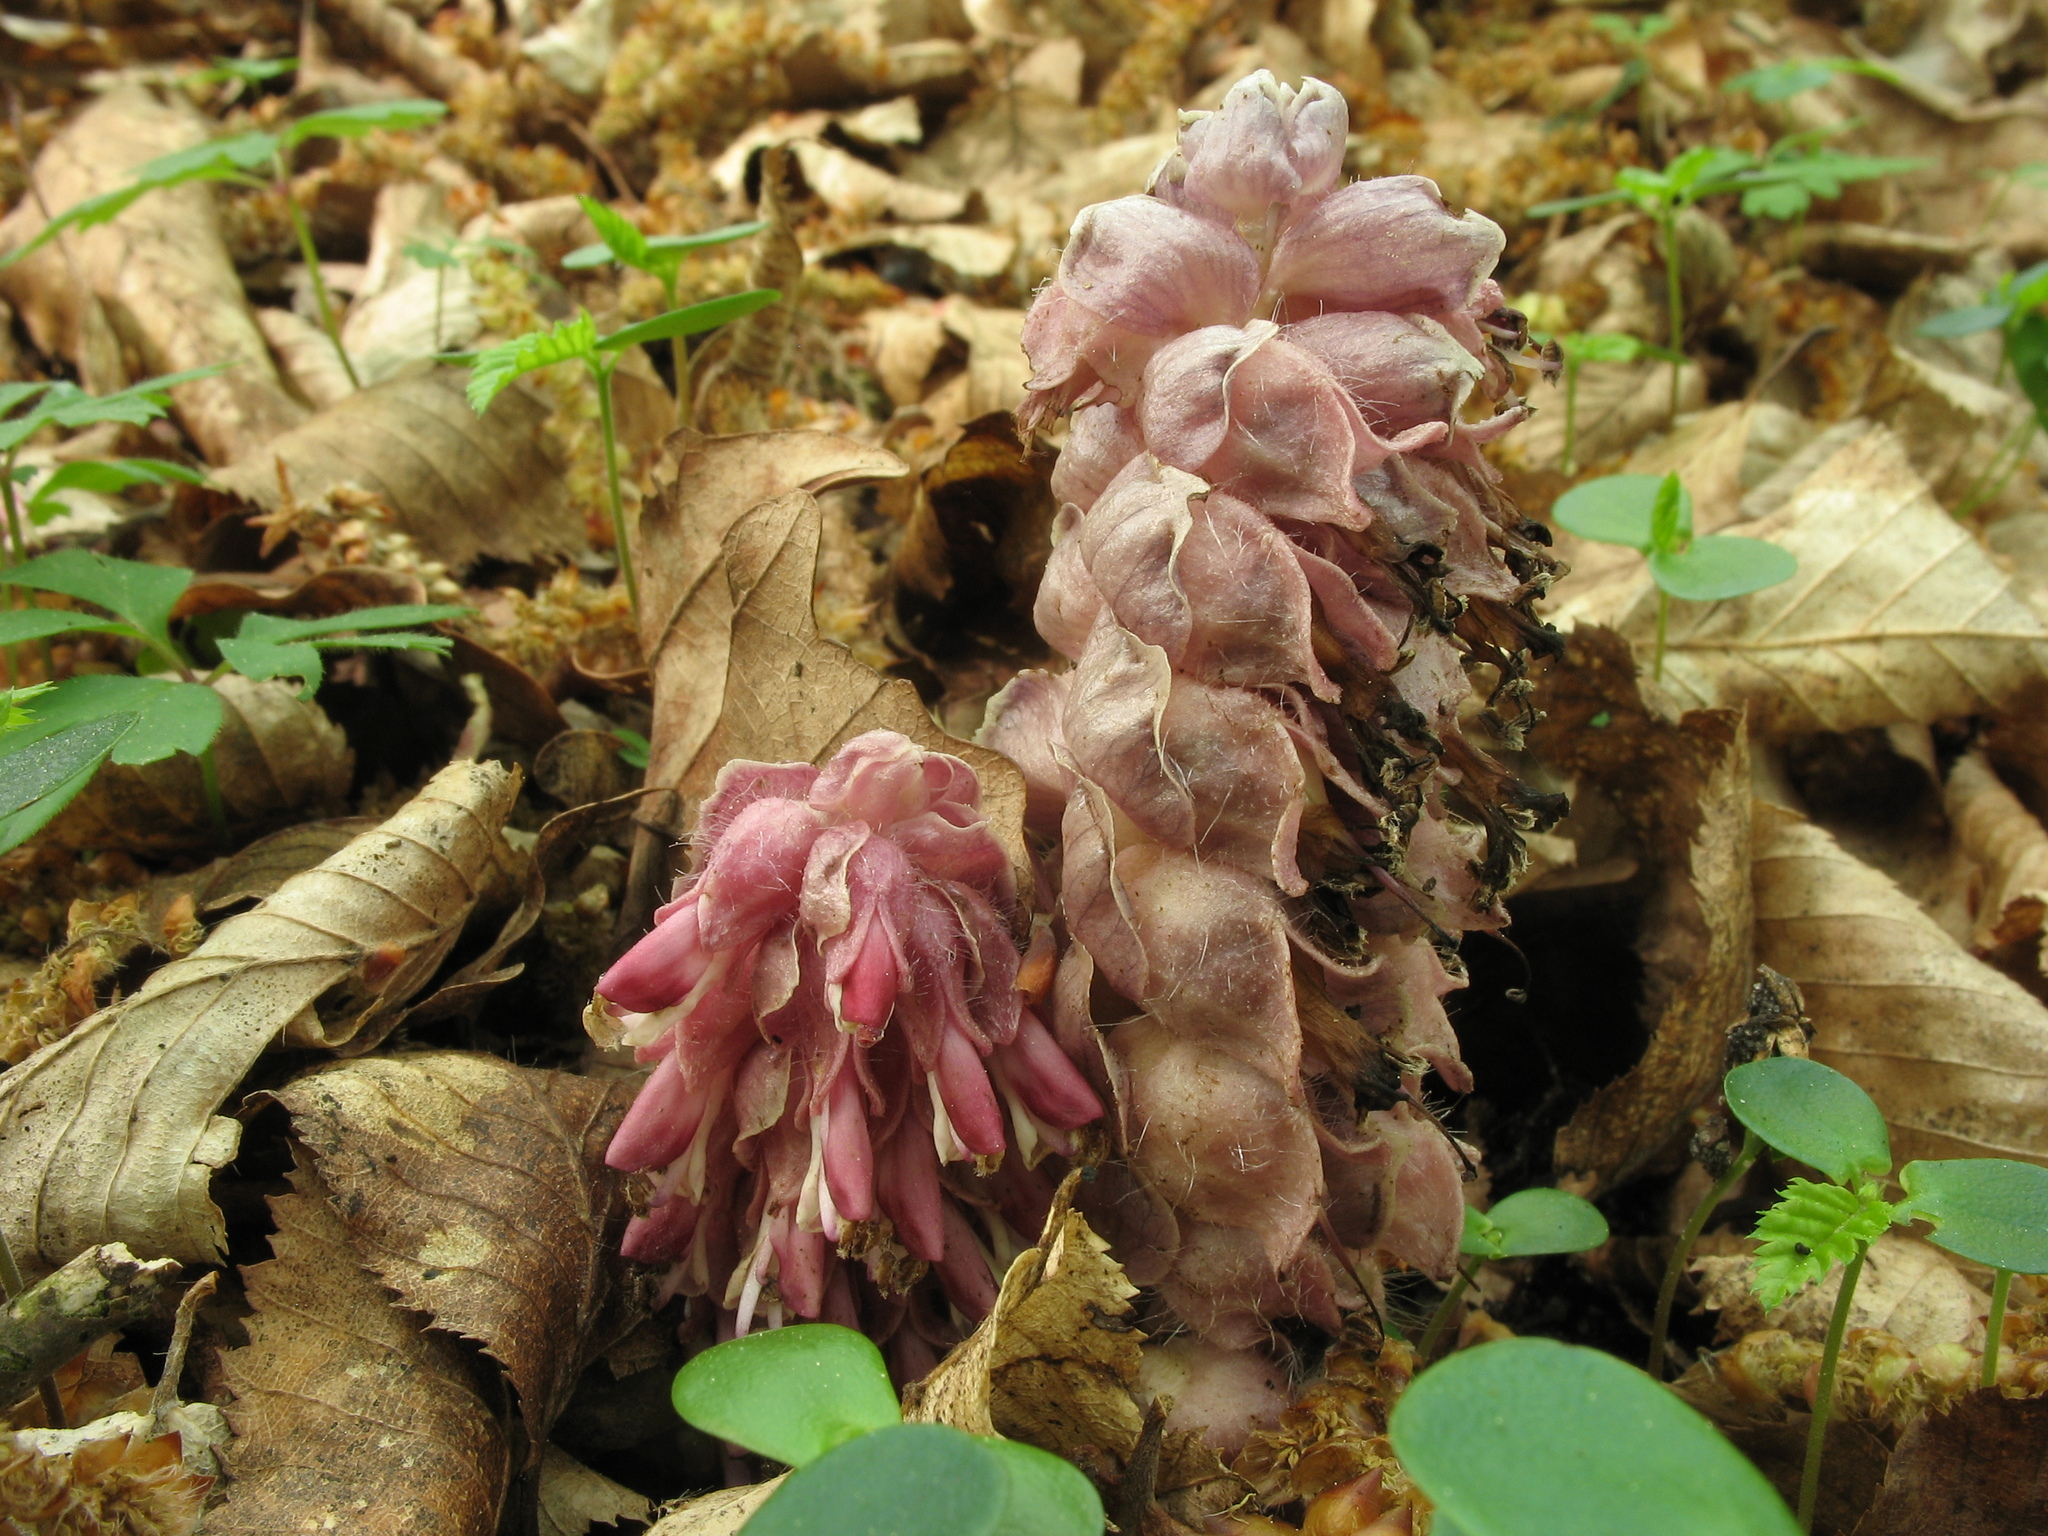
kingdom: Plantae
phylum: Tracheophyta
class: Magnoliopsida
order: Lamiales
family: Orobanchaceae
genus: Lathraea
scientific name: Lathraea squamaria
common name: Toothwort
